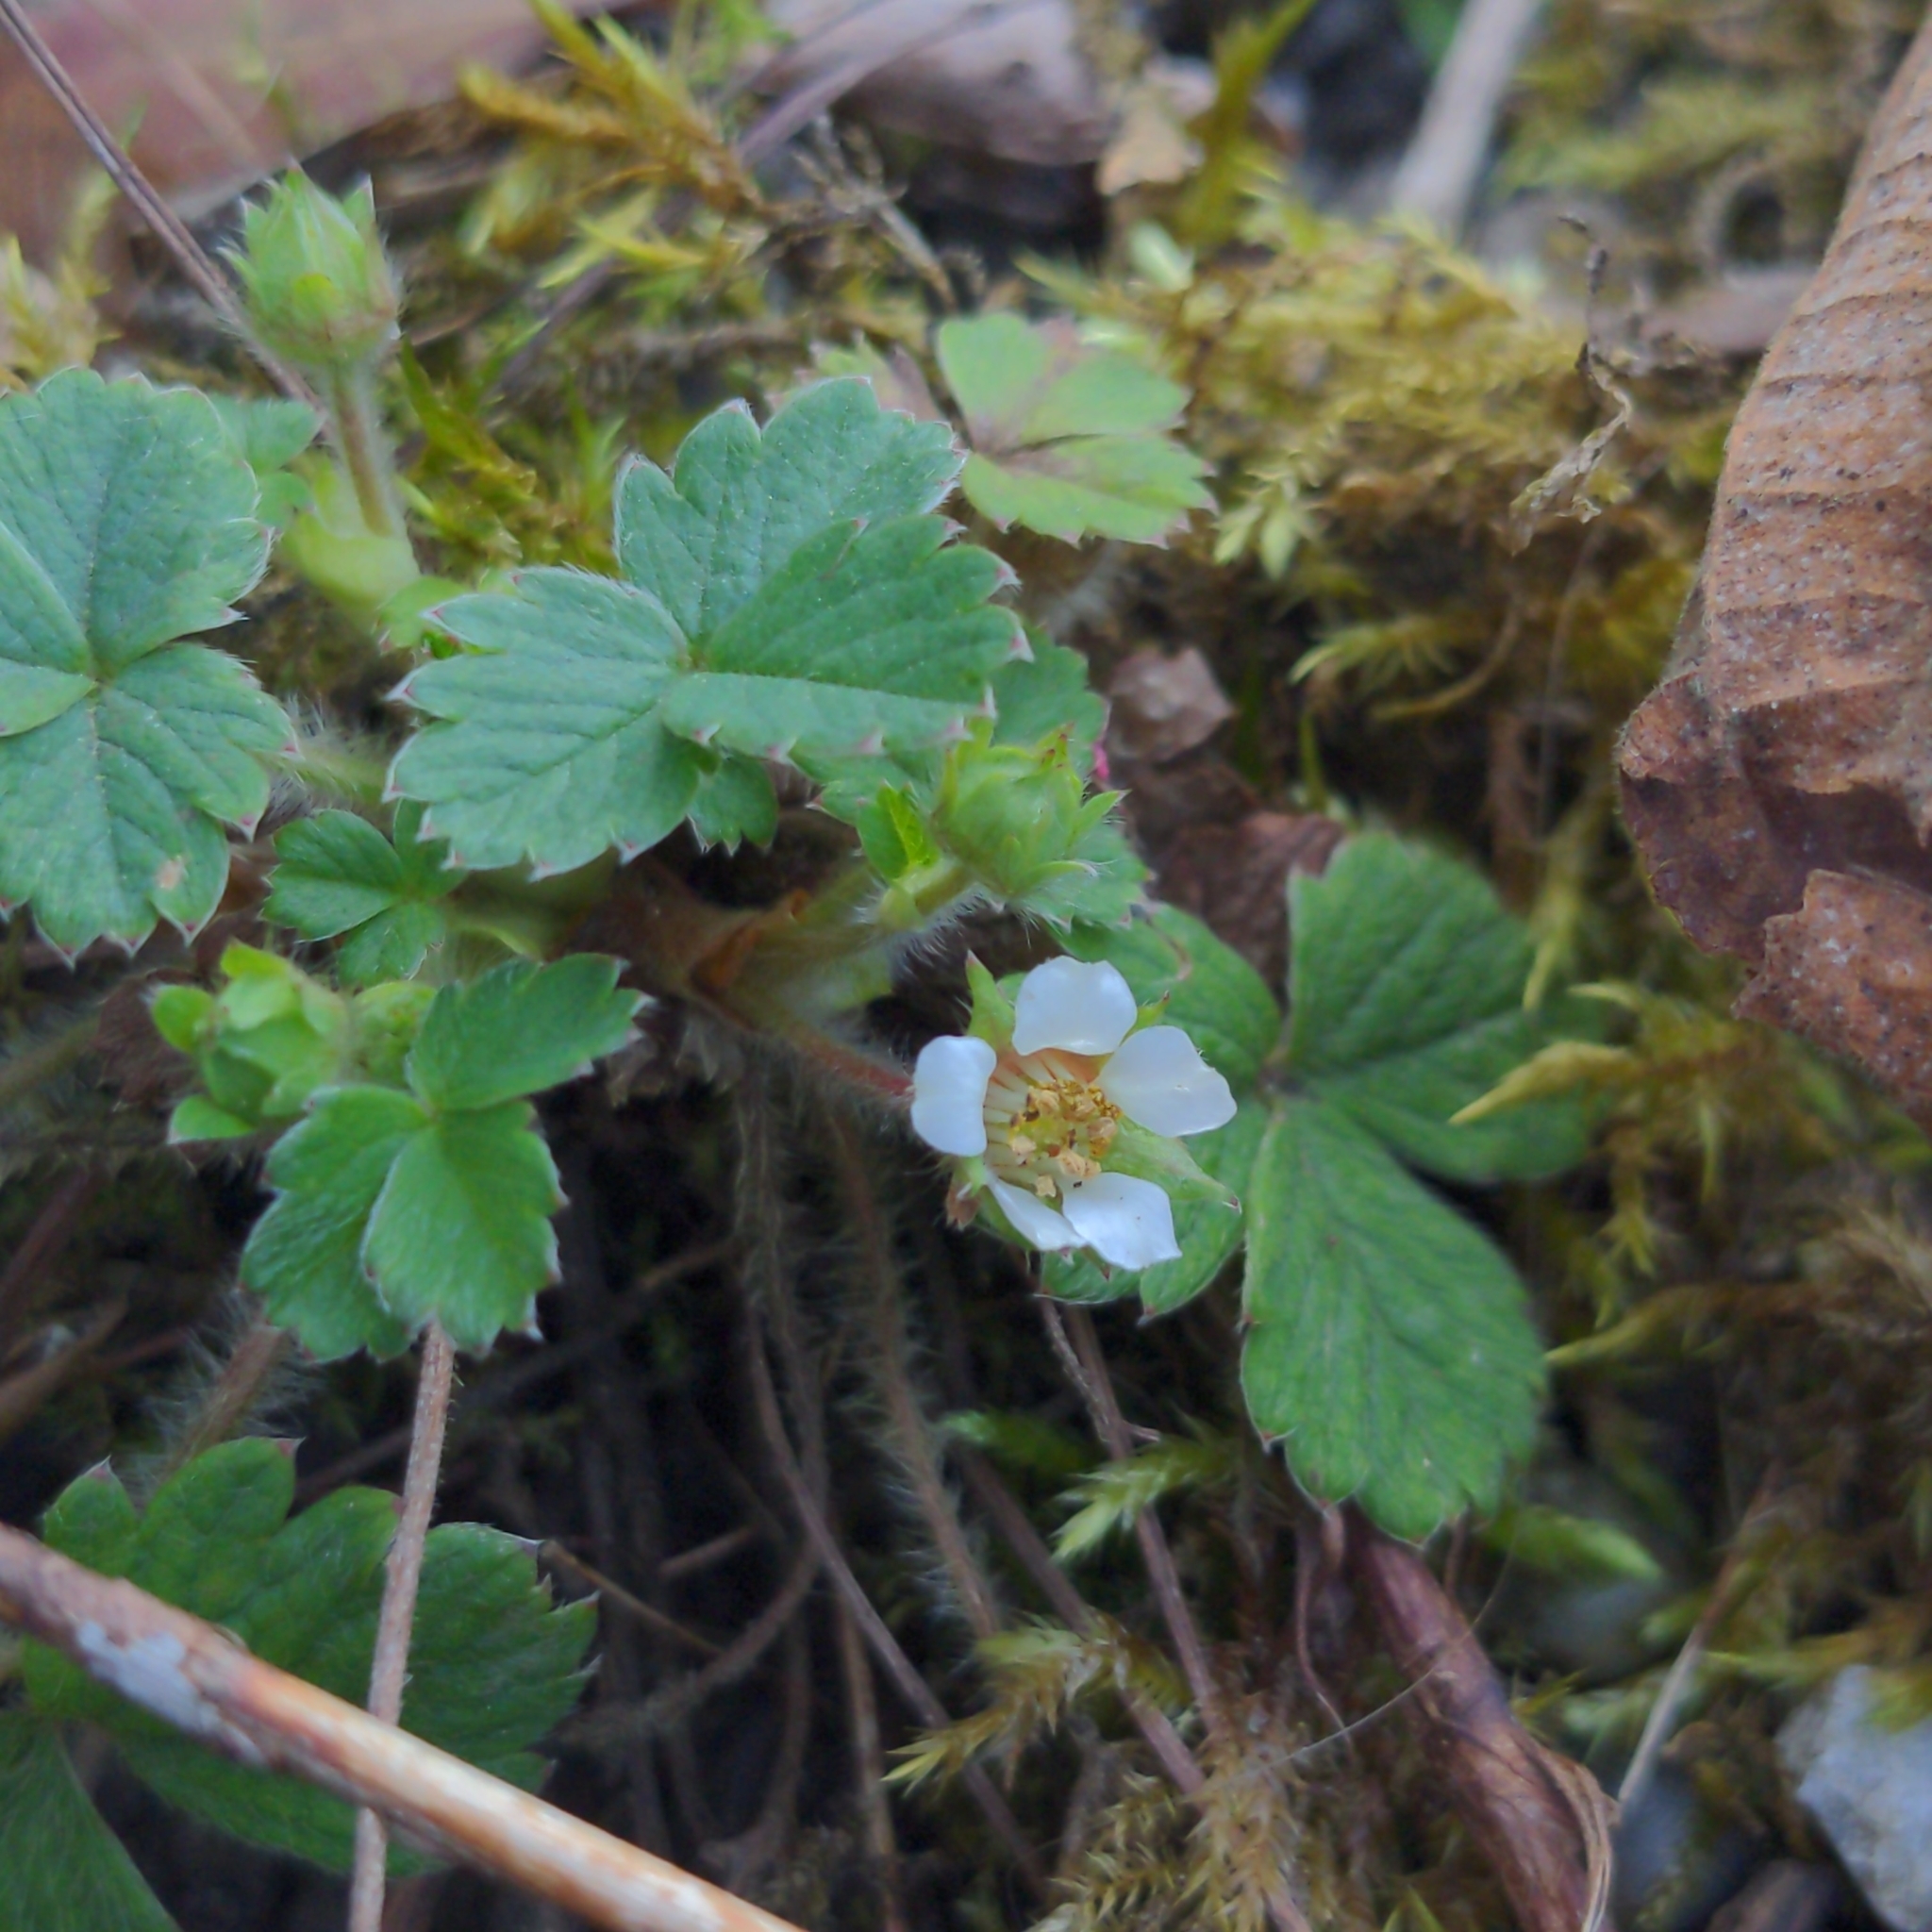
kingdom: Plantae
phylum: Tracheophyta
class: Magnoliopsida
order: Rosales
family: Rosaceae
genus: Potentilla
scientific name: Potentilla sterilis
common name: Barren strawberry
